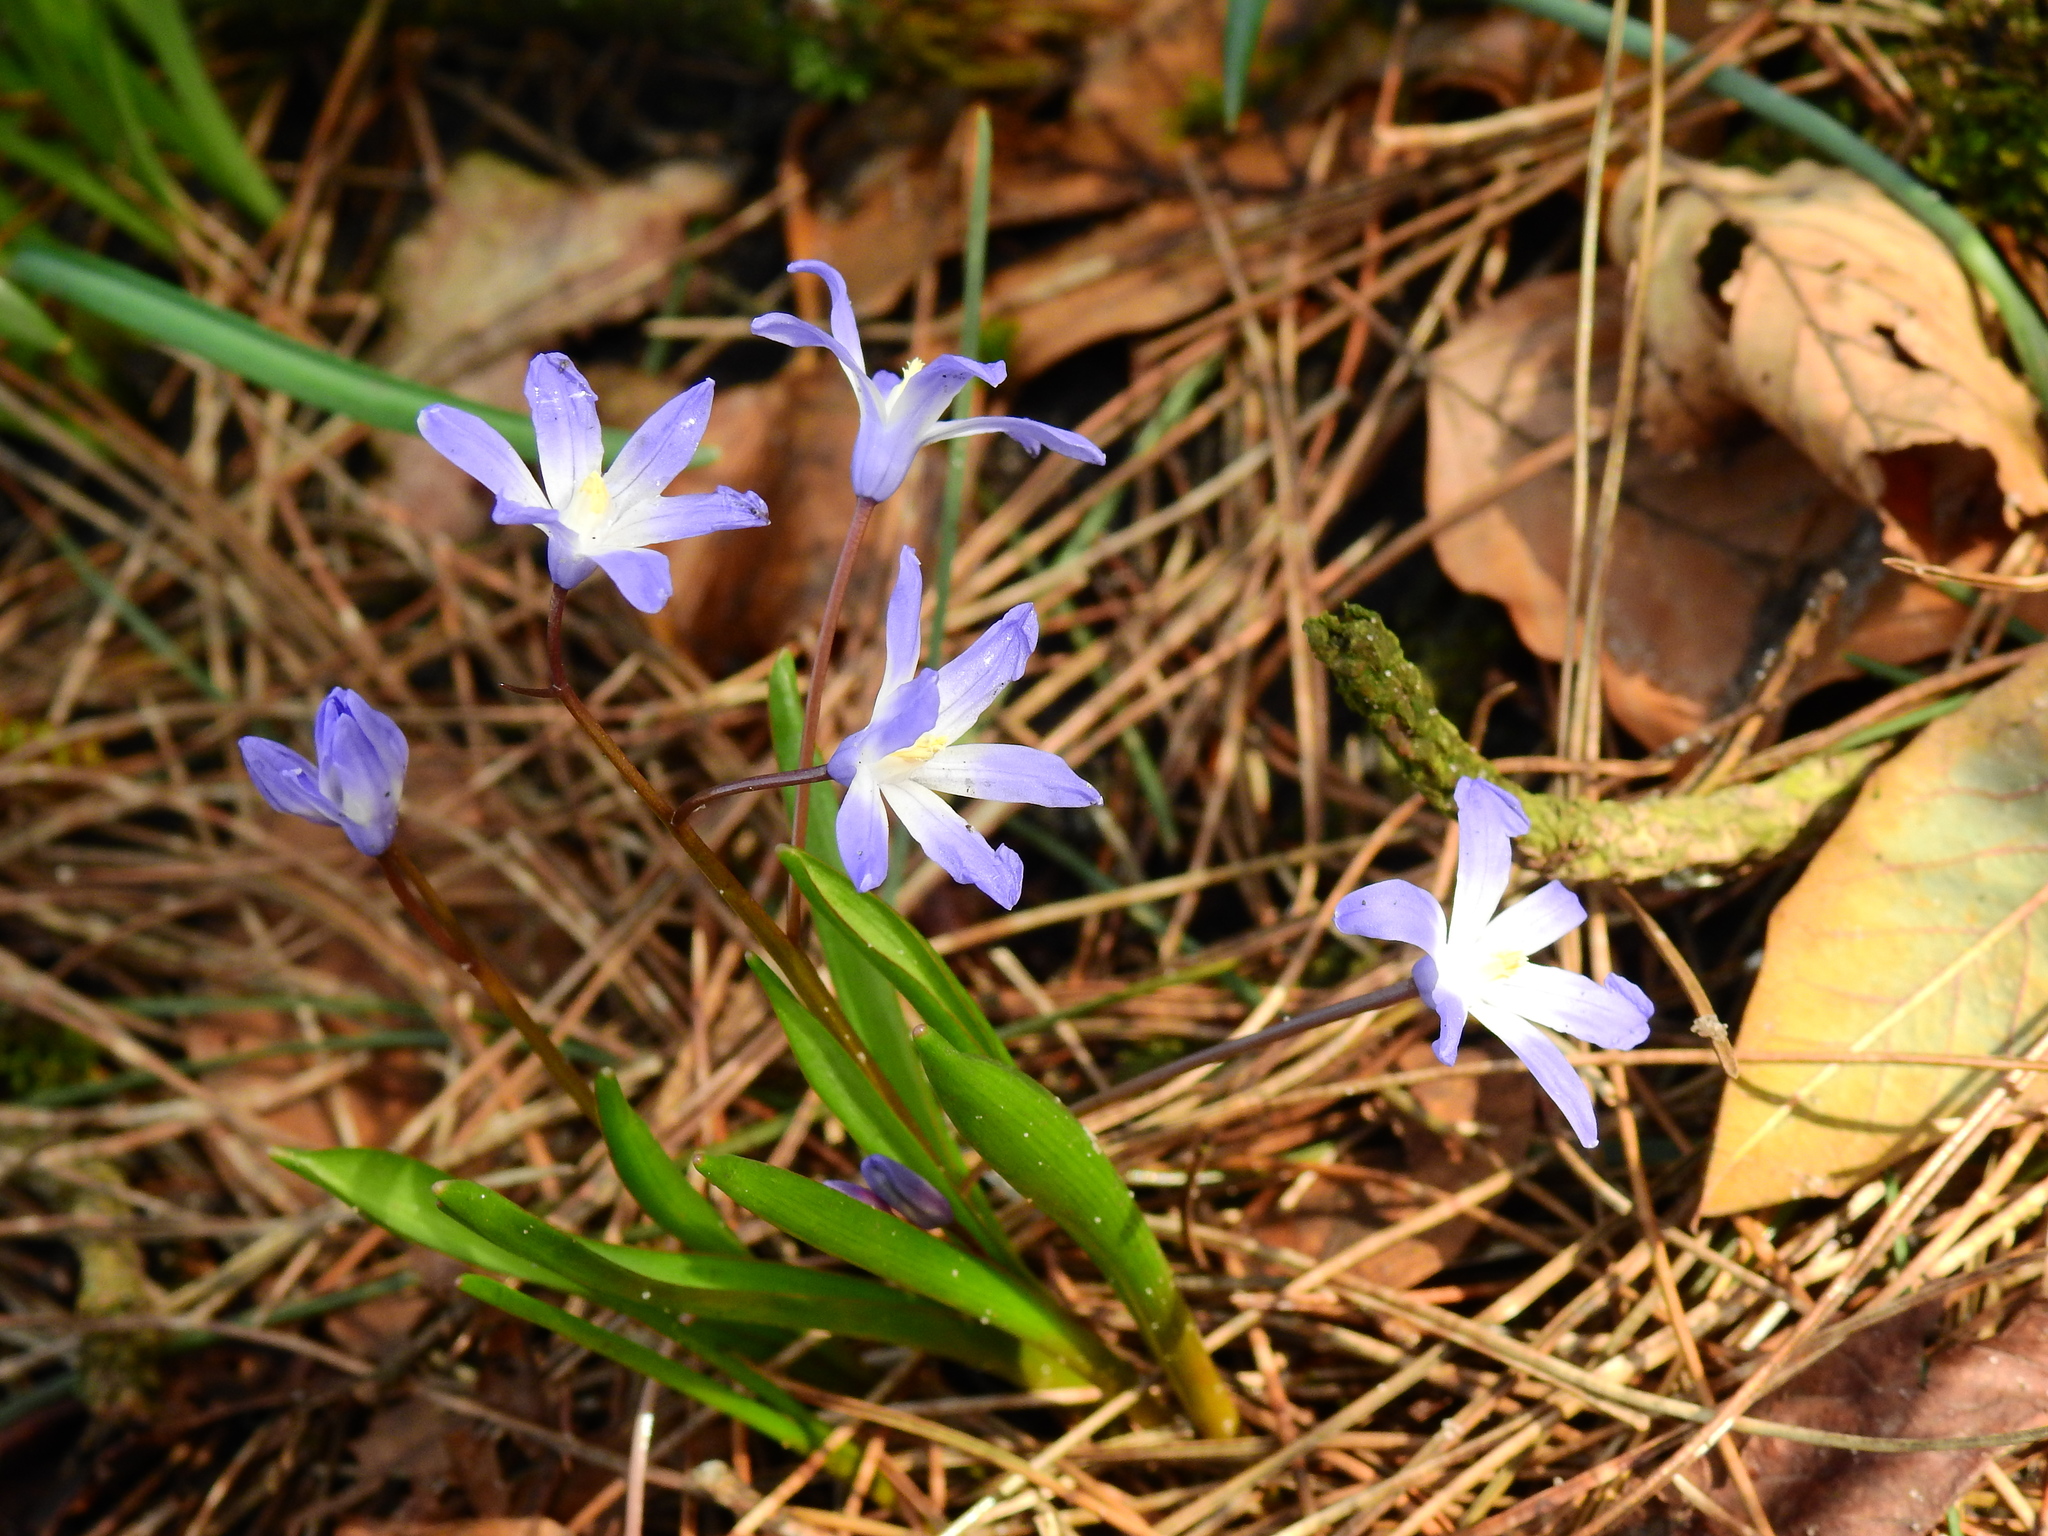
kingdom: Plantae
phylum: Tracheophyta
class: Liliopsida
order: Asparagales
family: Asparagaceae
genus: Scilla
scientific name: Scilla forbesii
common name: Glory-of-the-snow
